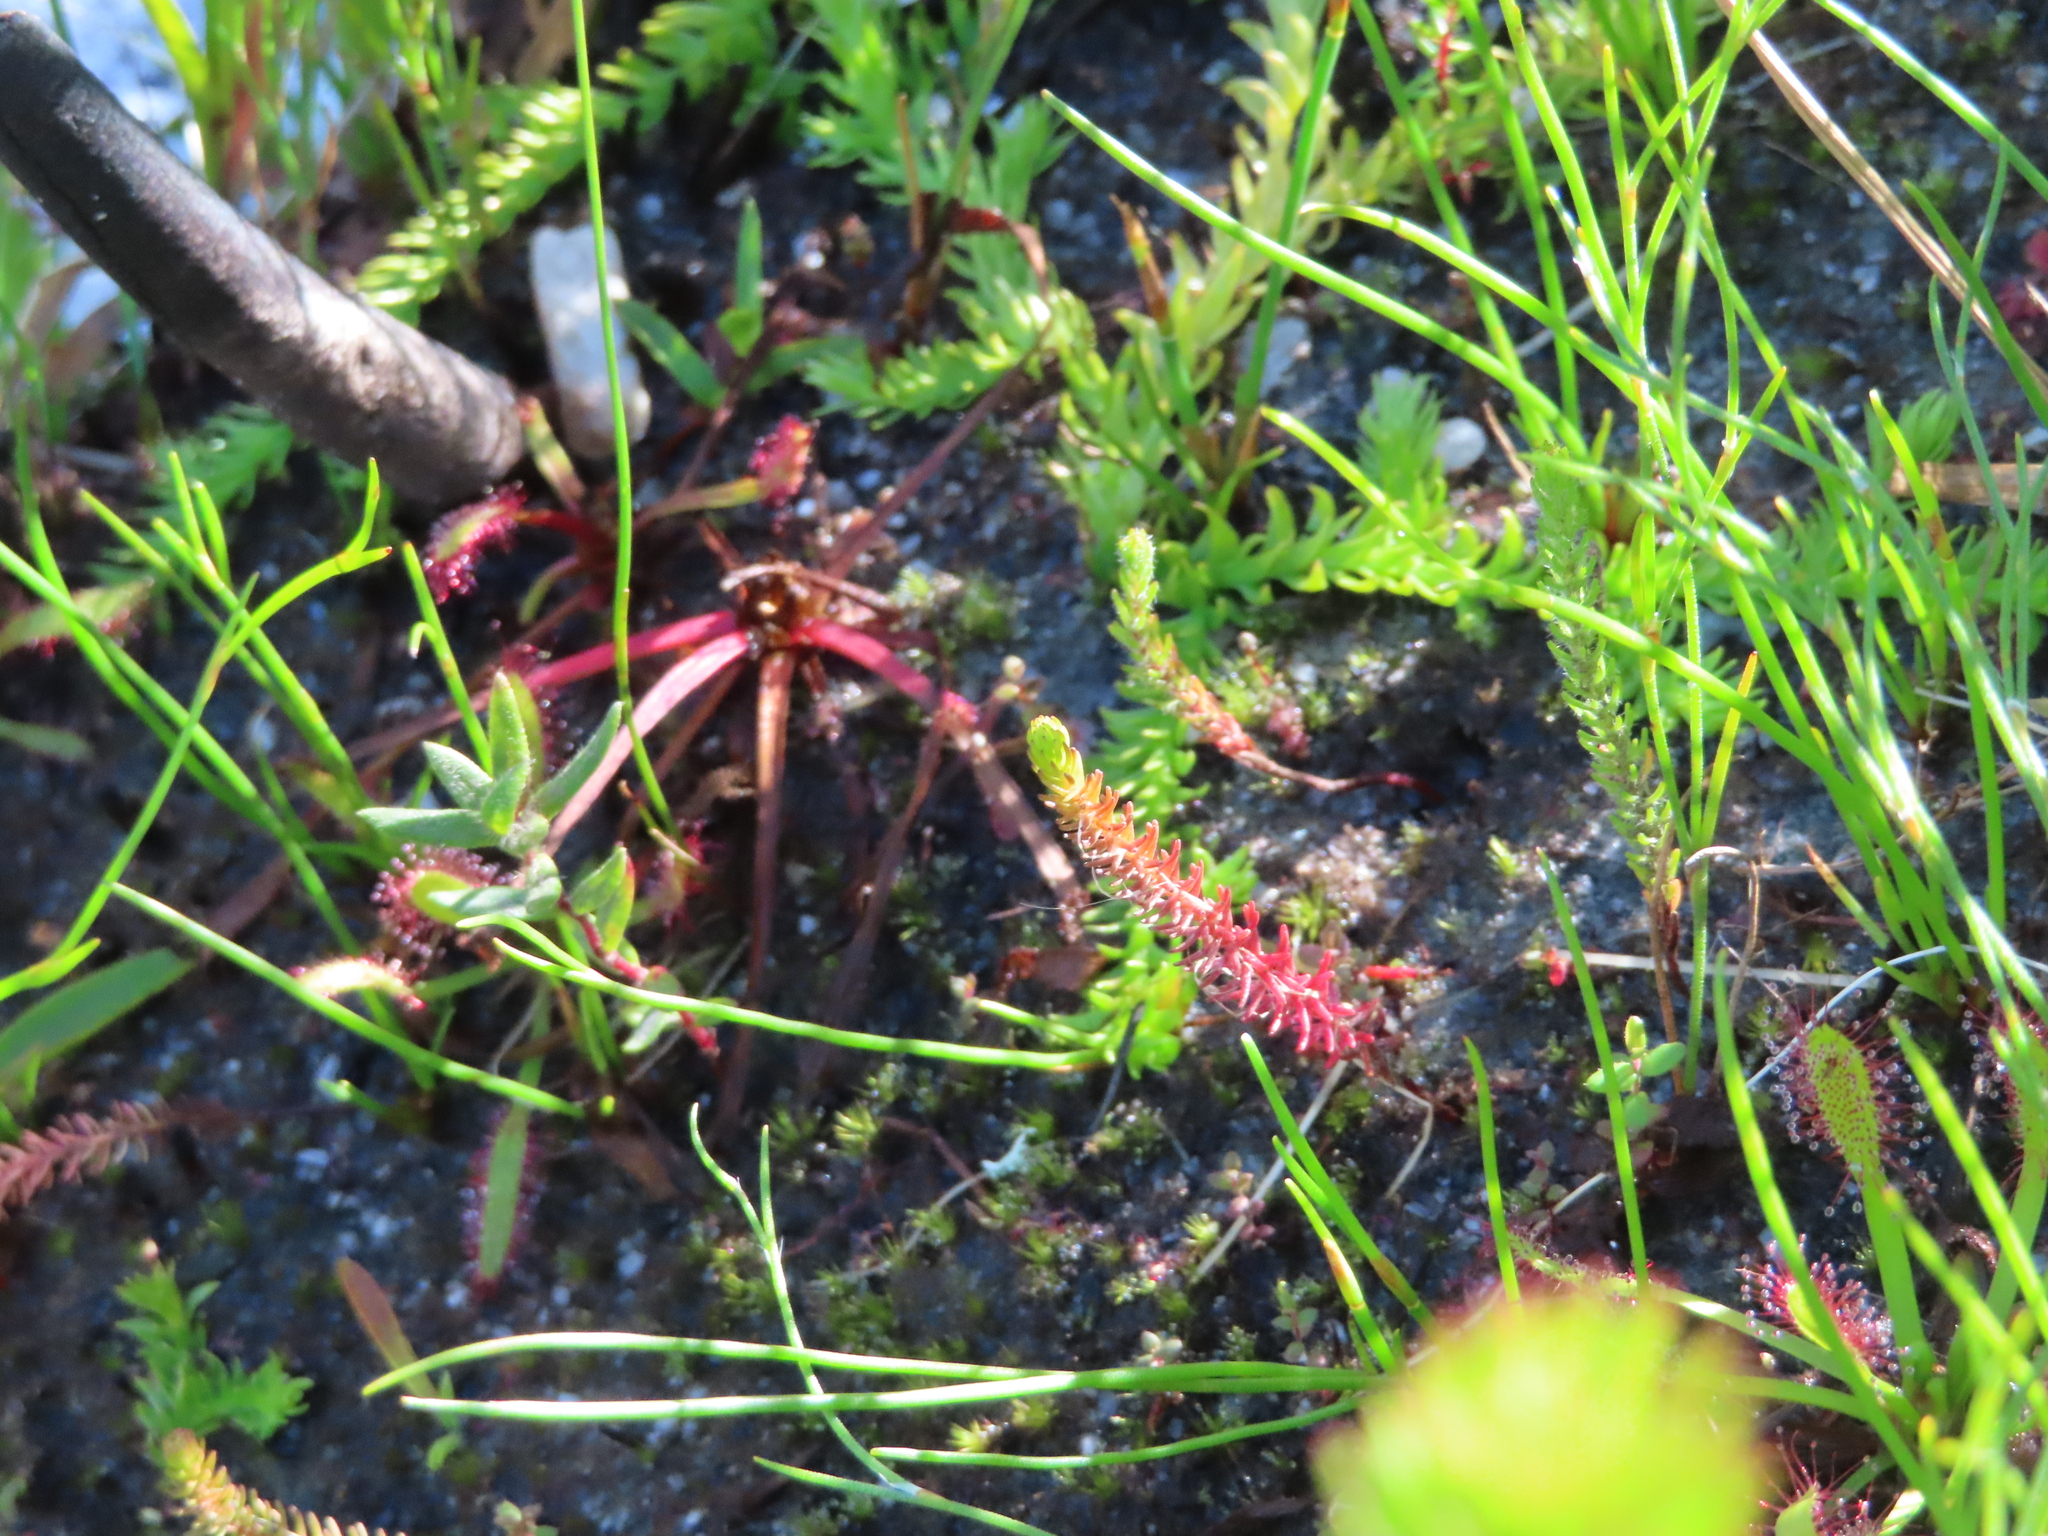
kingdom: Plantae
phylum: Tracheophyta
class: Magnoliopsida
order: Caryophyllales
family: Droseraceae
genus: Drosera
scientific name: Drosera capensis
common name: Cape sundew
